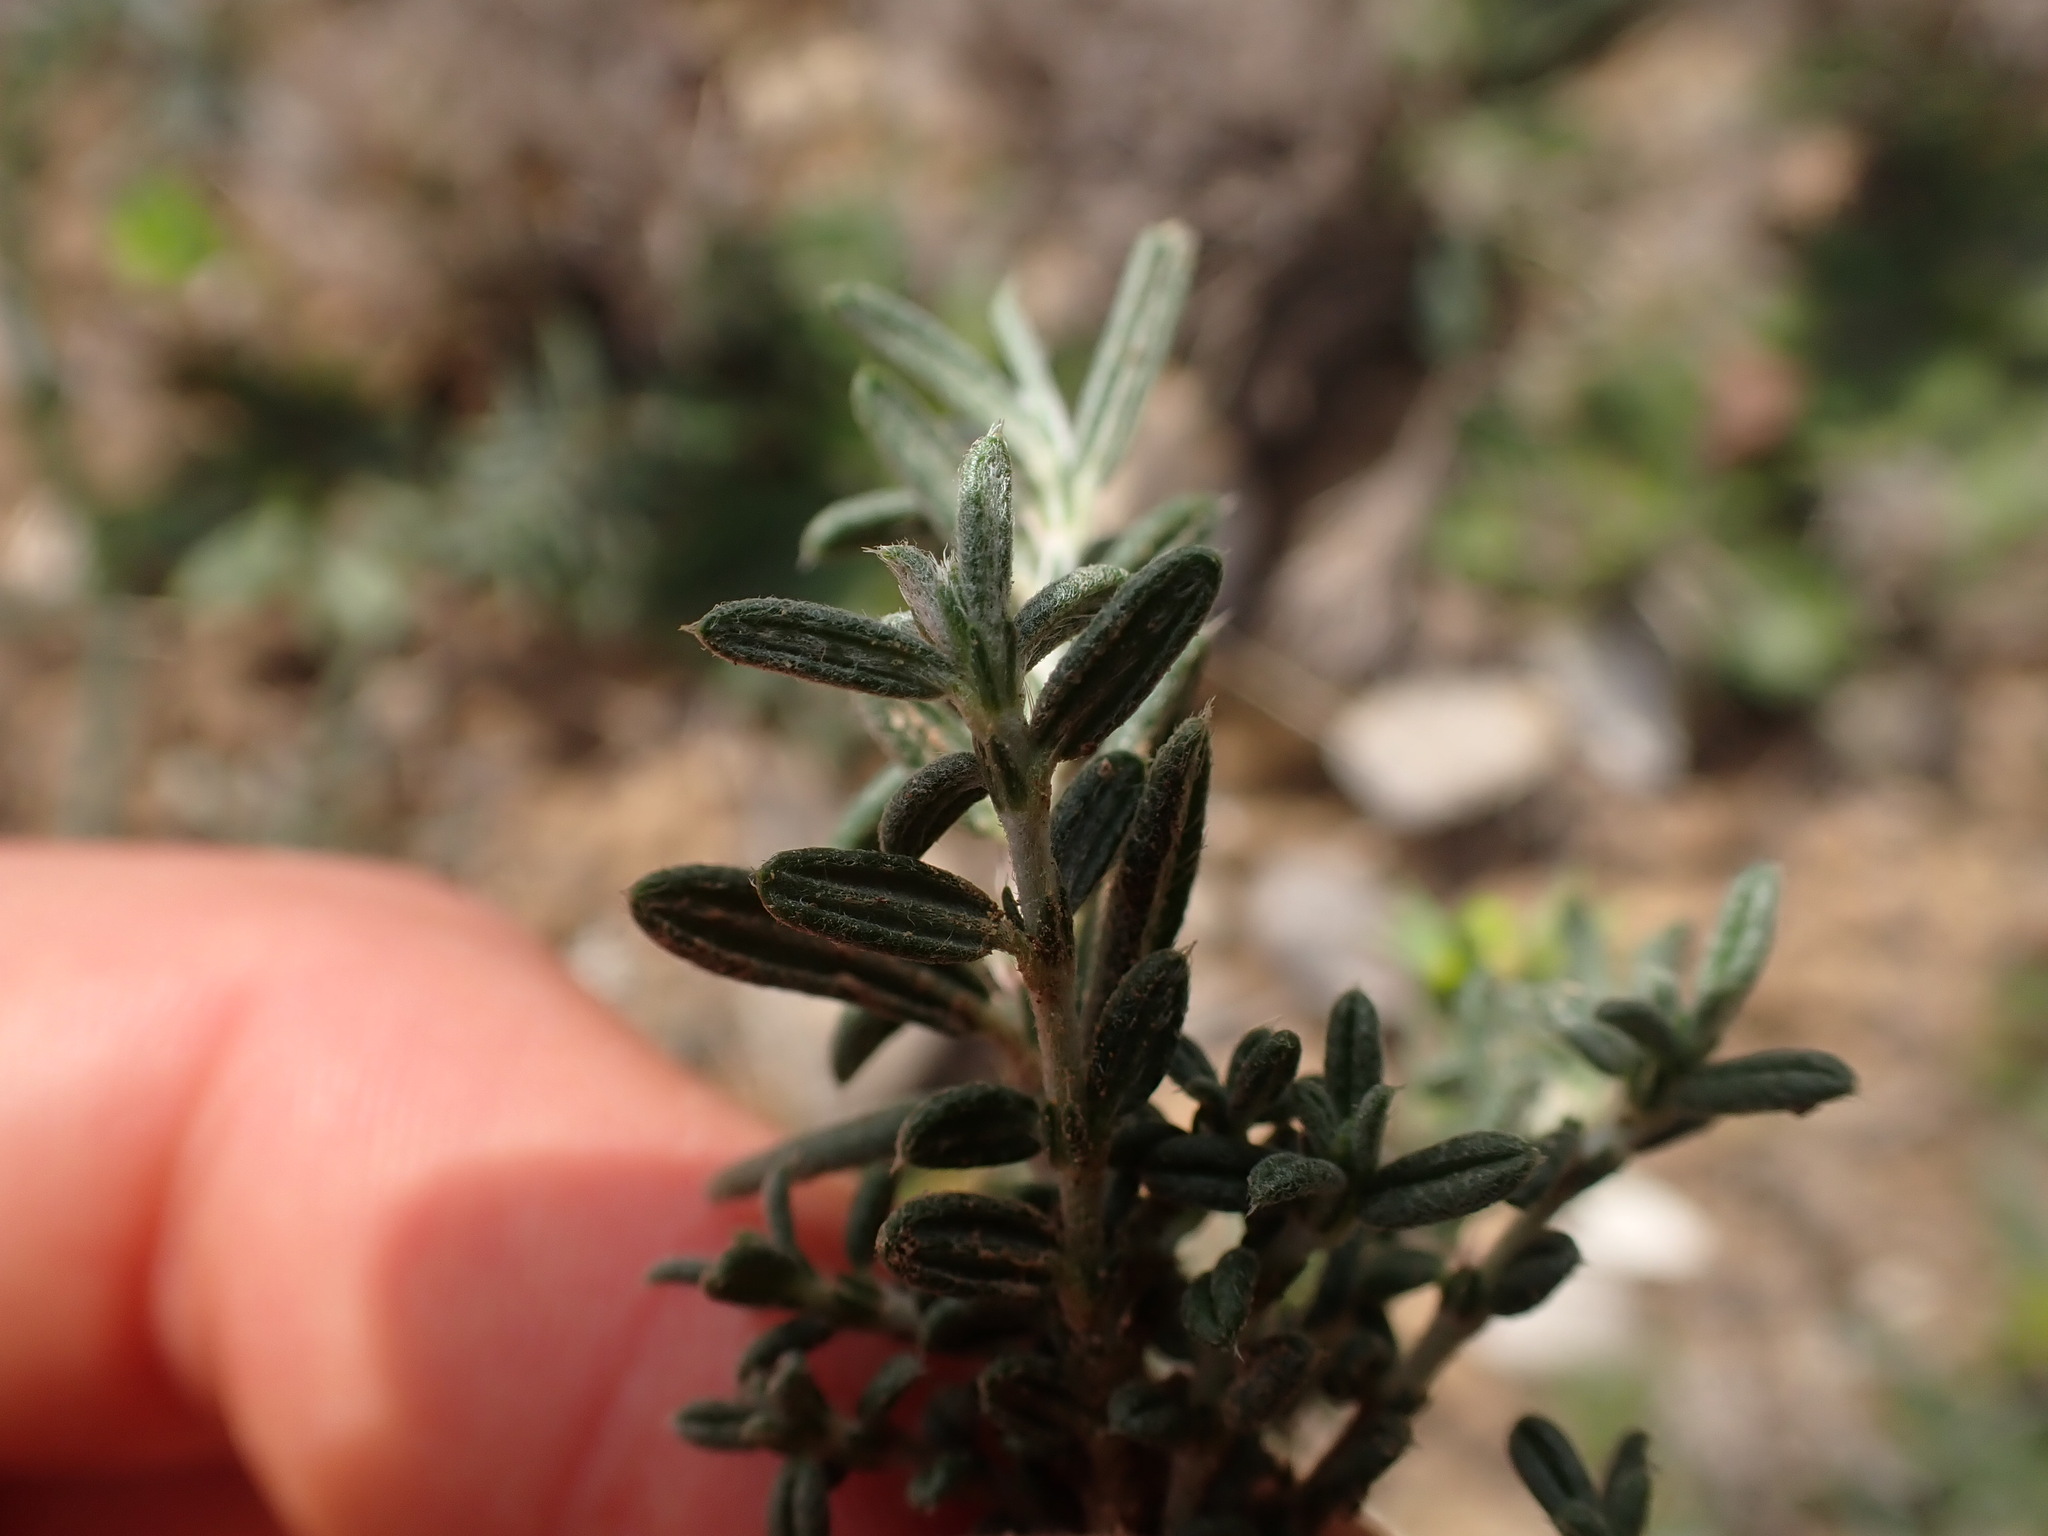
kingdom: Plantae
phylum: Tracheophyta
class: Magnoliopsida
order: Malvales
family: Cistaceae
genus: Helianthemum
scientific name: Helianthemum apenninum
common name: White rock-rose
